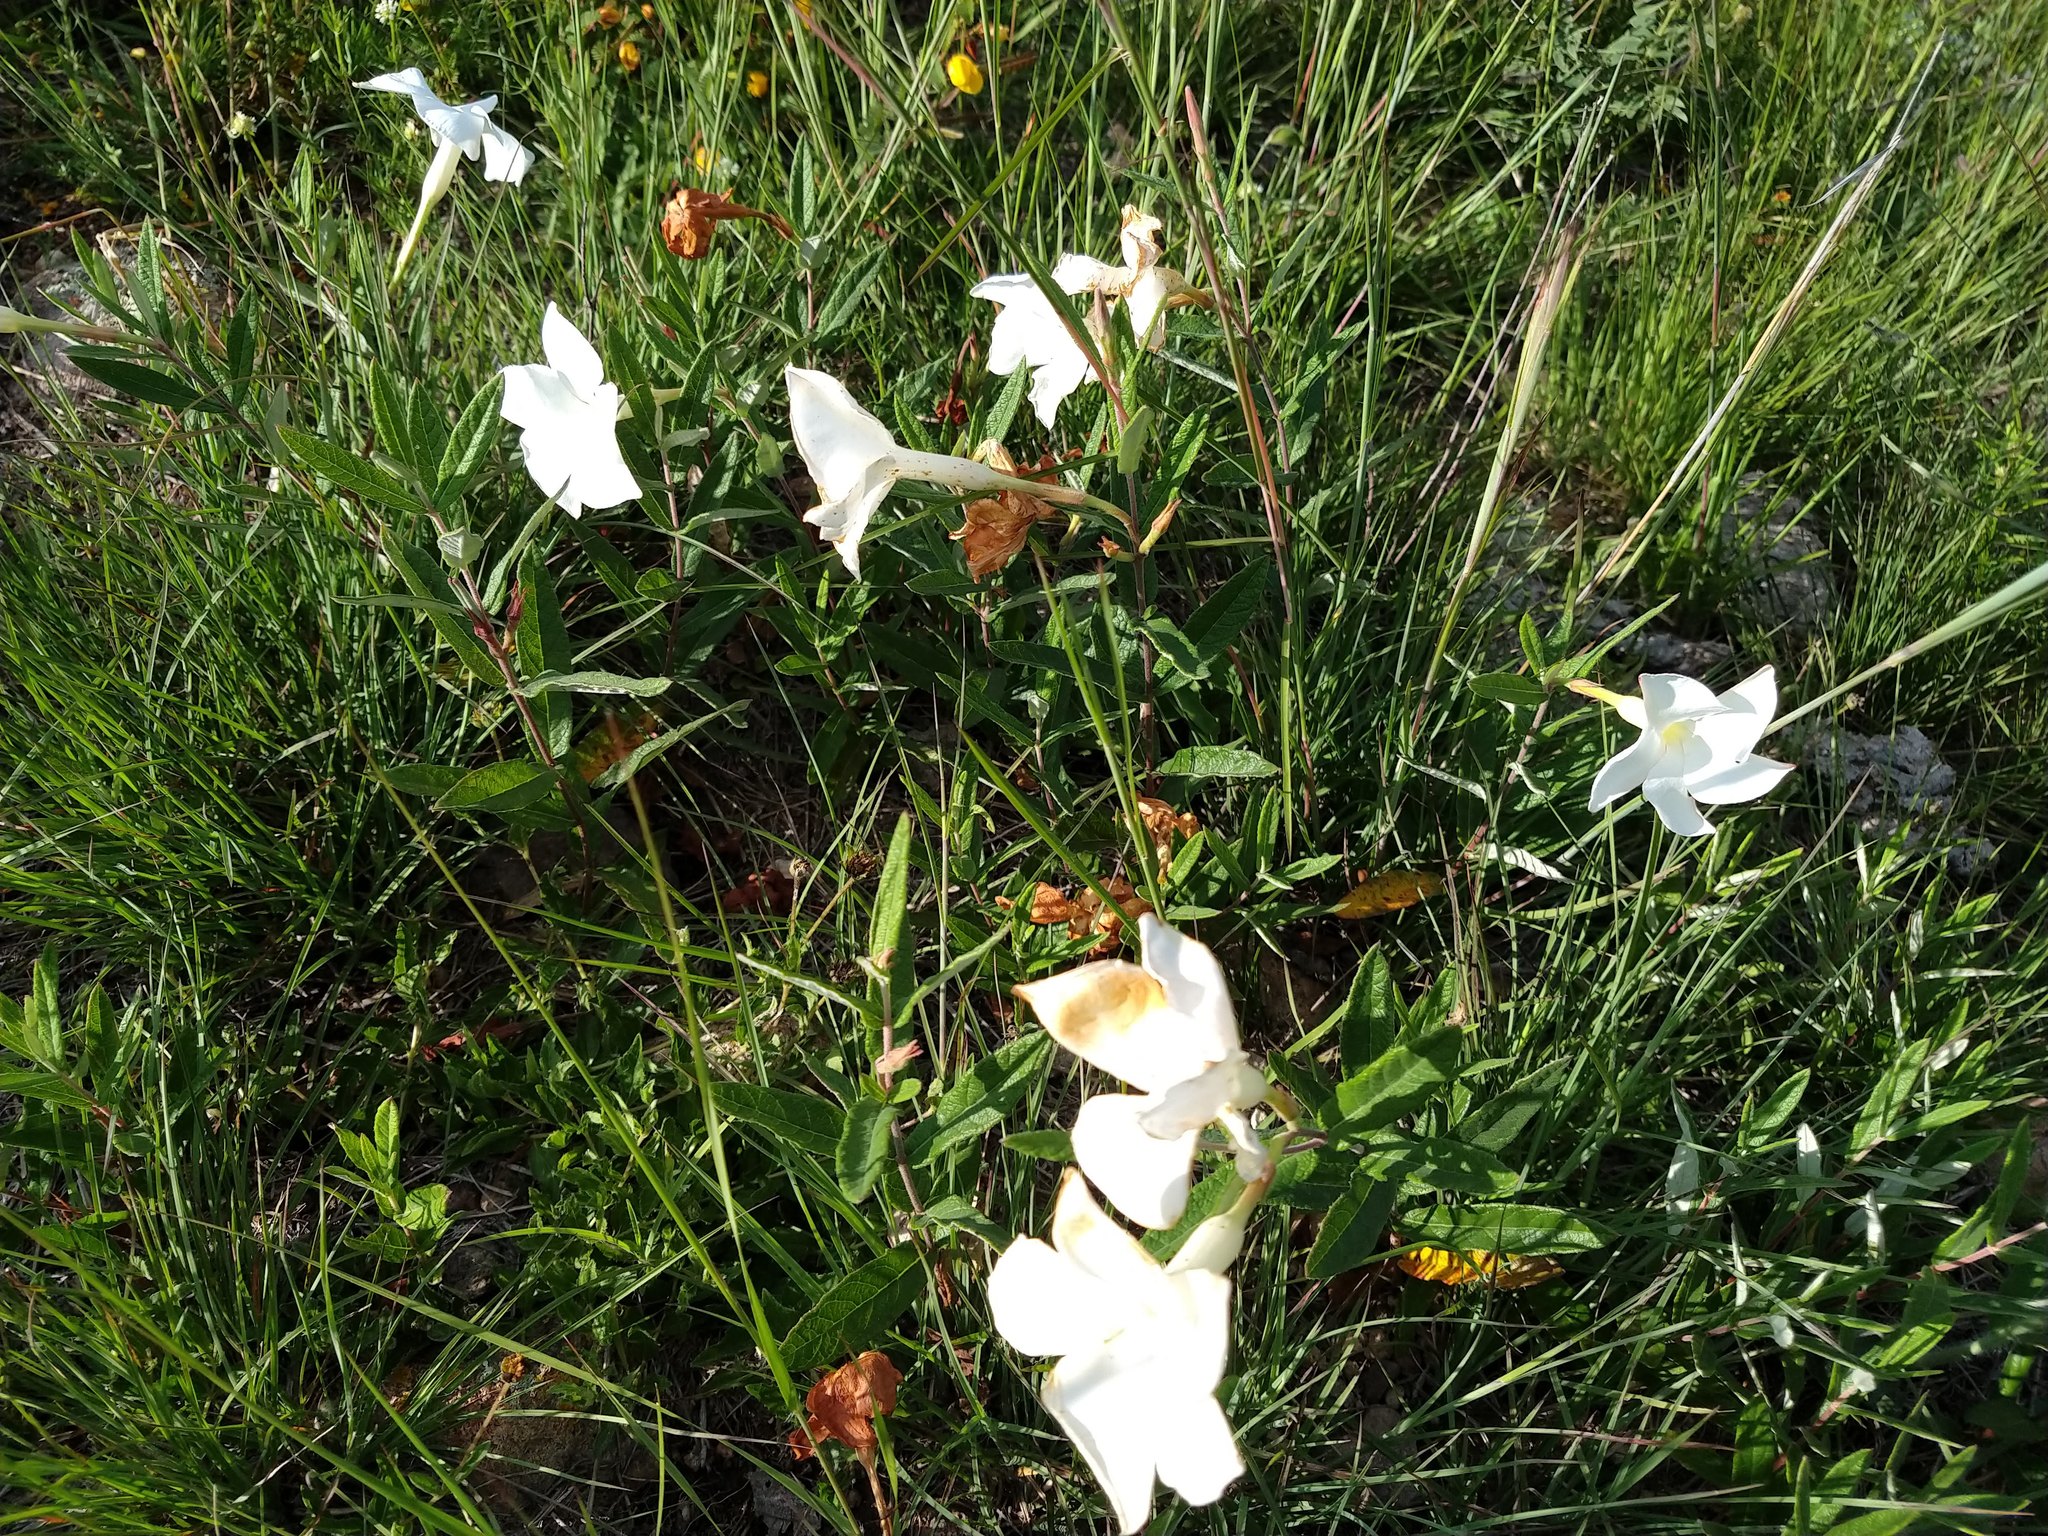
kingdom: Plantae
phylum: Tracheophyta
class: Magnoliopsida
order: Gentianales
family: Apocynaceae
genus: Mandevilla
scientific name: Mandevilla hypoleuca
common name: Davis mountain rocktrumpet
